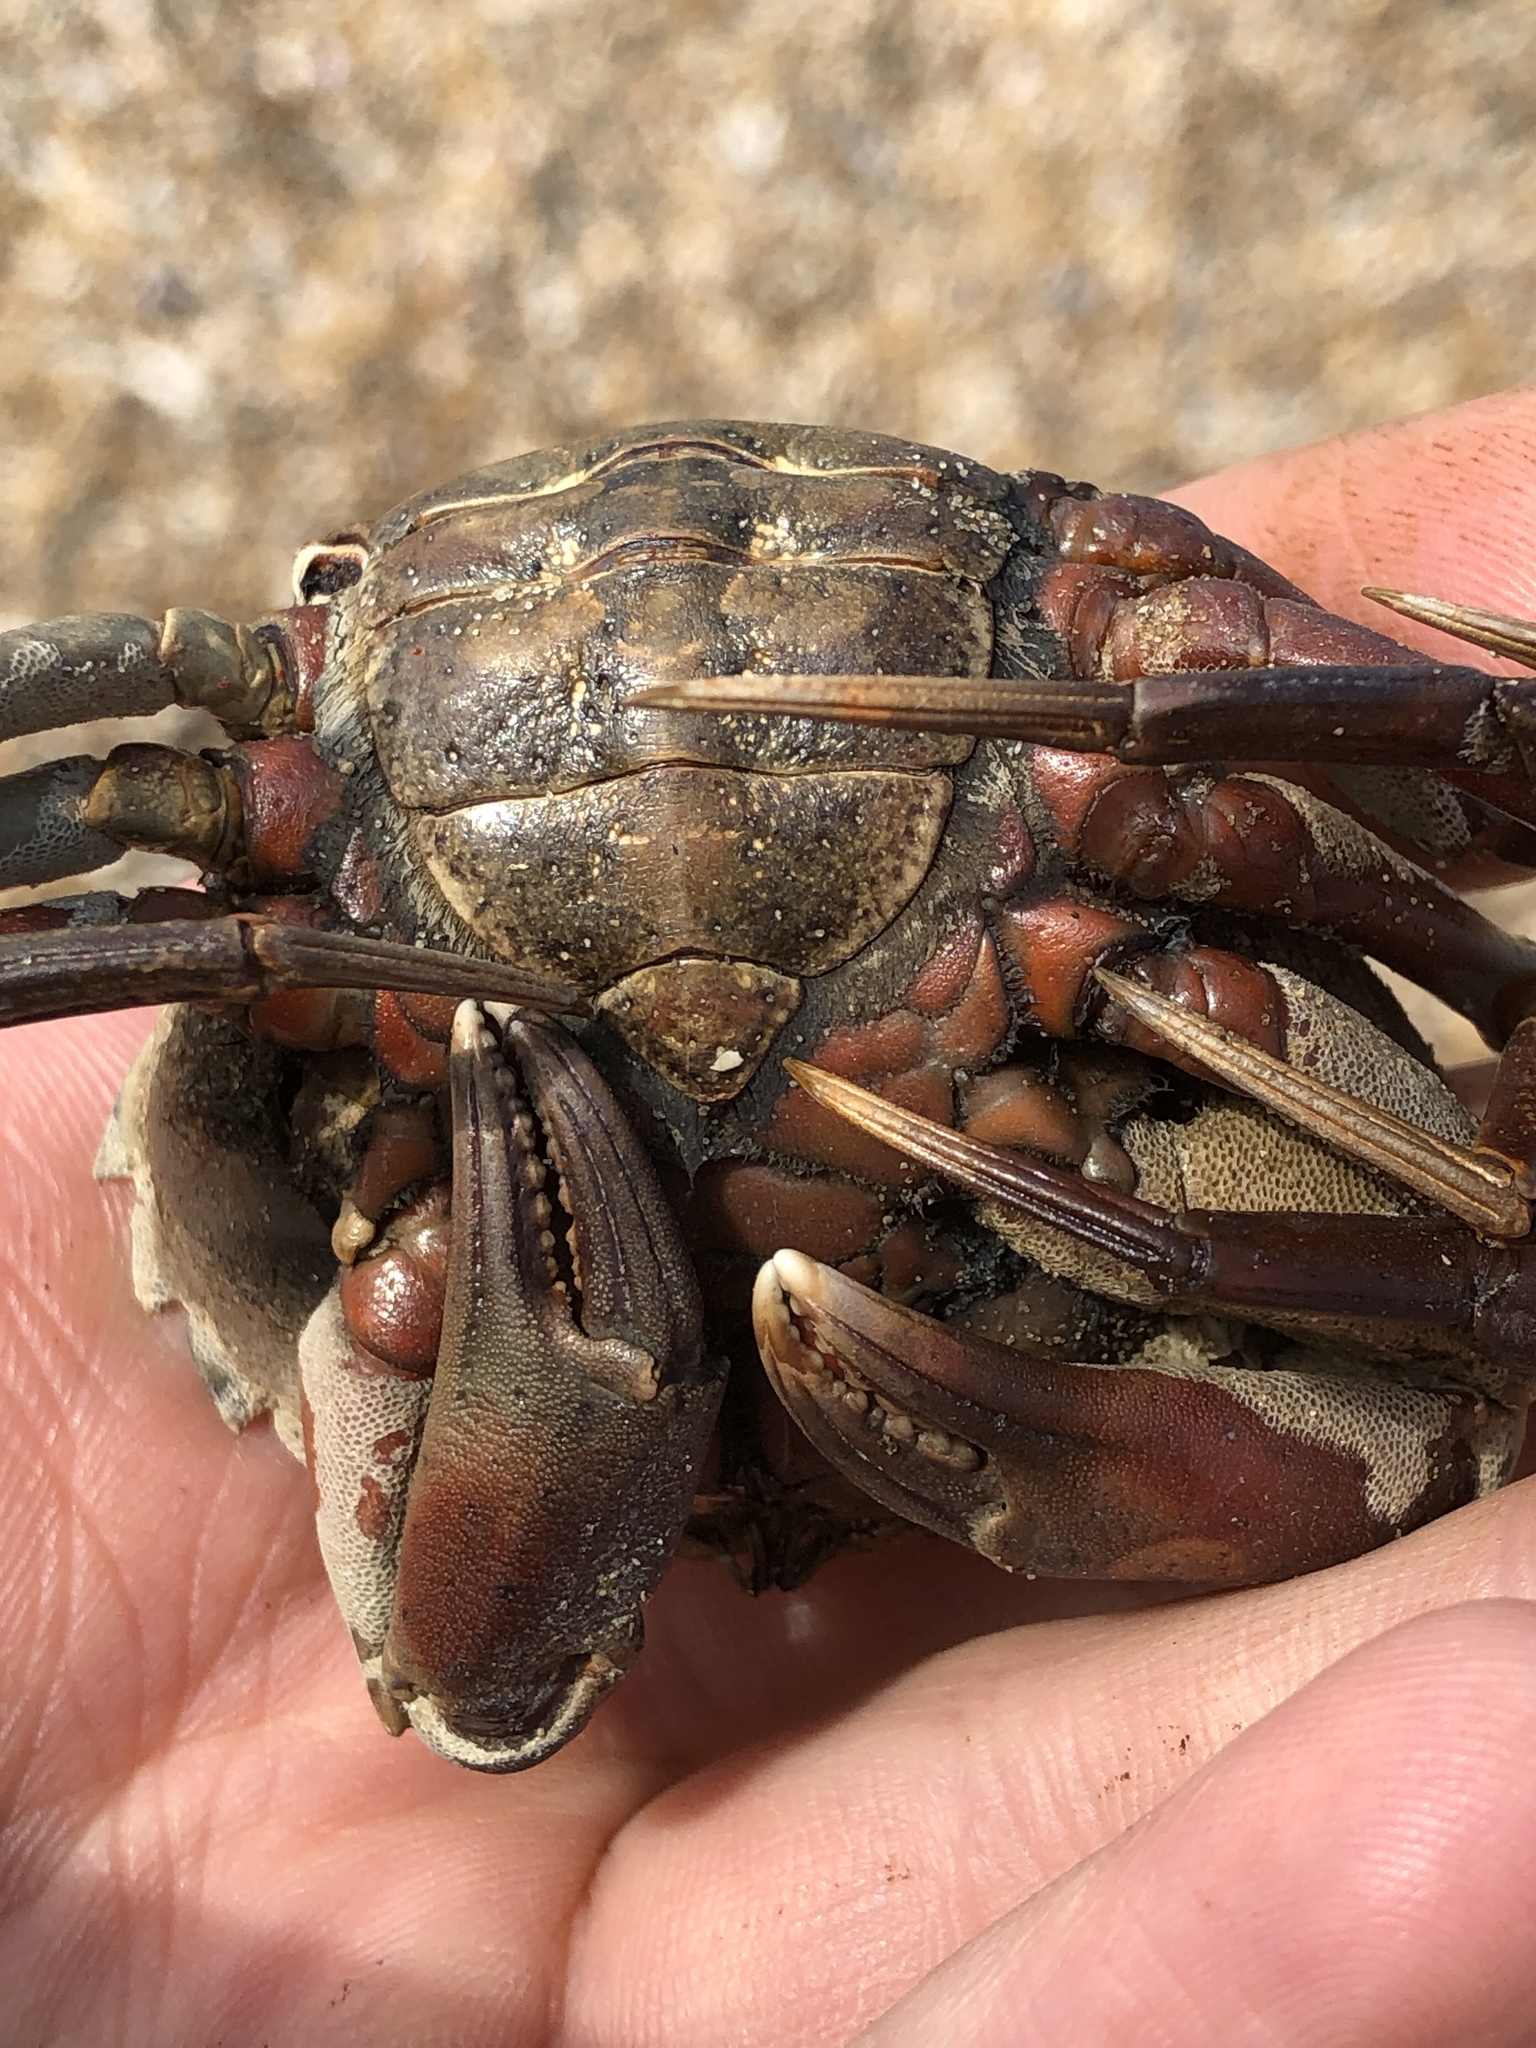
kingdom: Animalia
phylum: Arthropoda
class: Malacostraca
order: Decapoda
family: Carcinidae
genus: Carcinus
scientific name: Carcinus maenas
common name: European green crab
